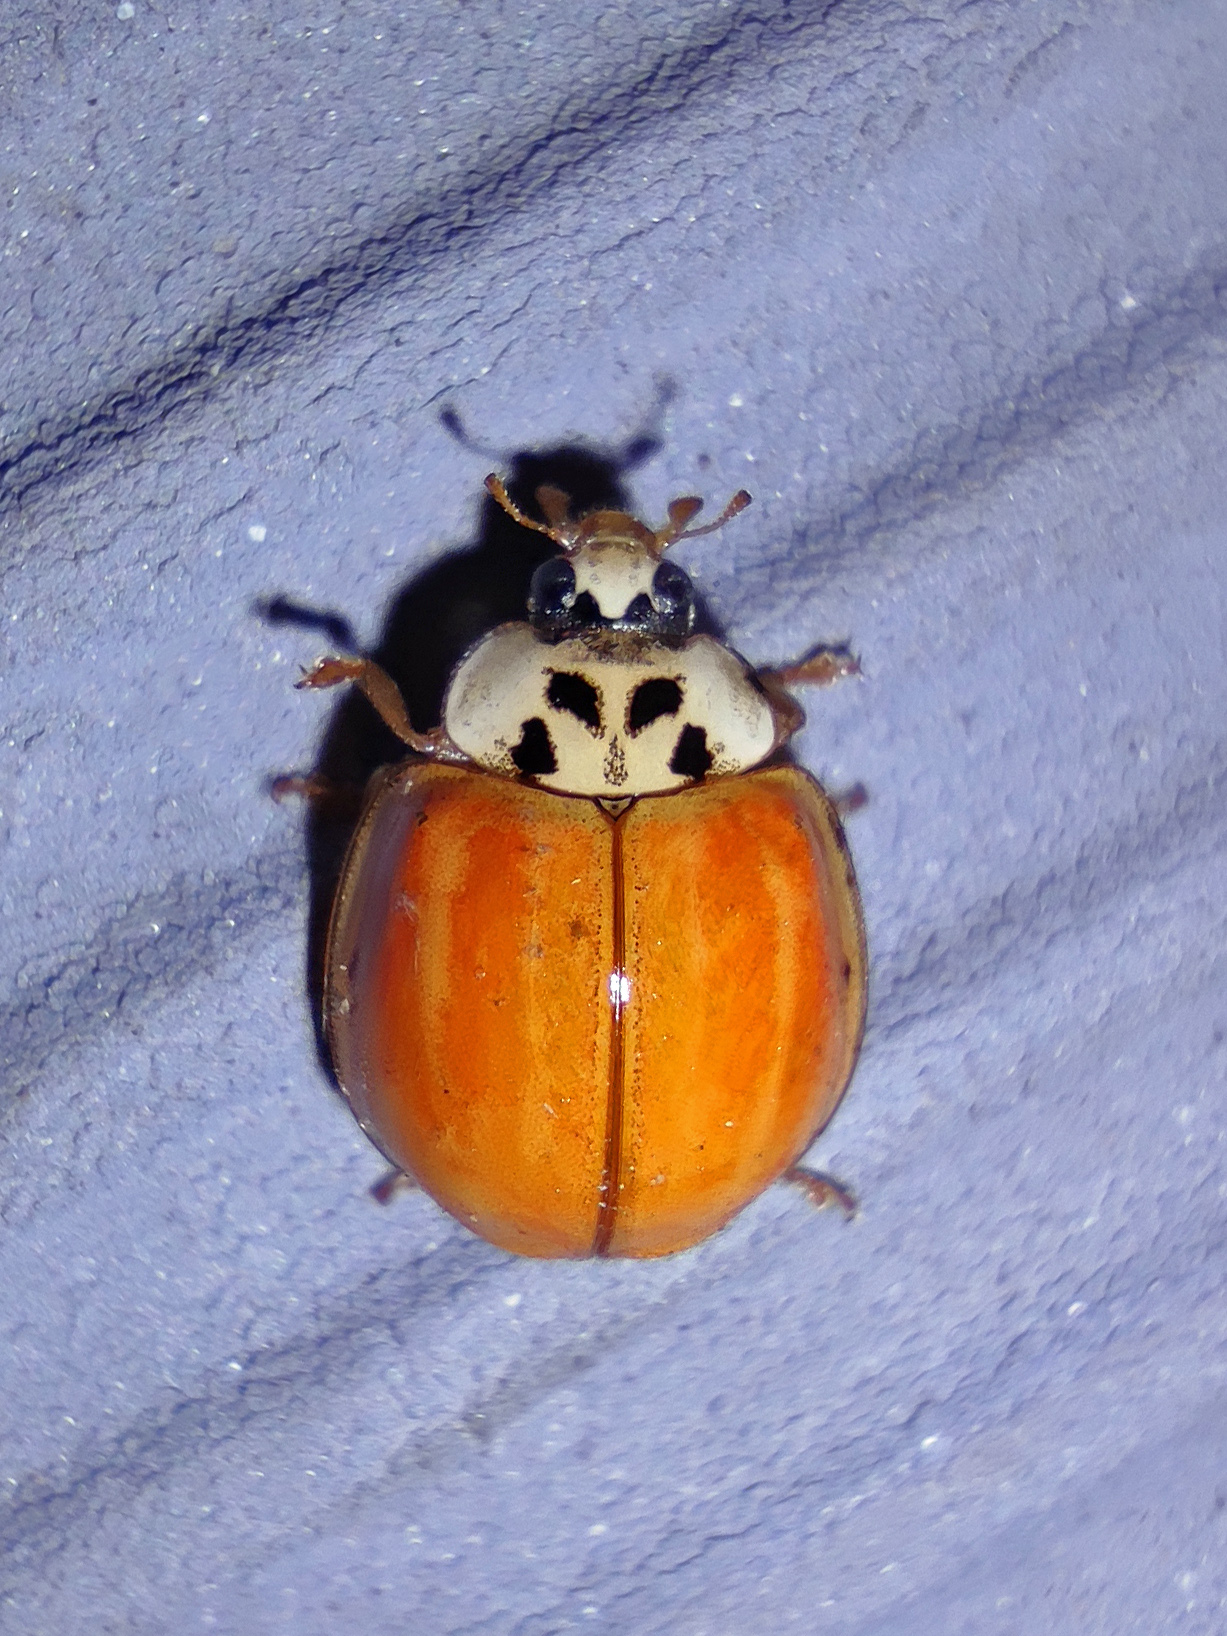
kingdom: Animalia
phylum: Arthropoda
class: Insecta
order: Coleoptera
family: Coccinellidae
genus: Harmonia
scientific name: Harmonia axyridis
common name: Harlequin ladybird
